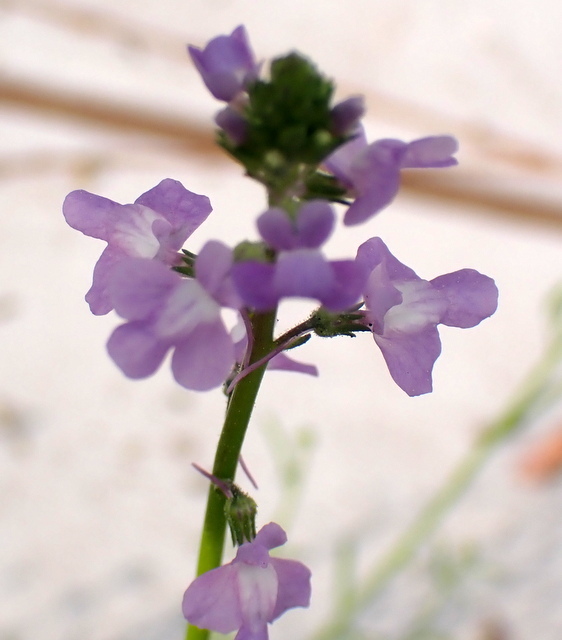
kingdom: Plantae
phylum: Tracheophyta
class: Magnoliopsida
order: Lamiales
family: Plantaginaceae
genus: Nuttallanthus
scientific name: Nuttallanthus canadensis
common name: Blue toadflax
